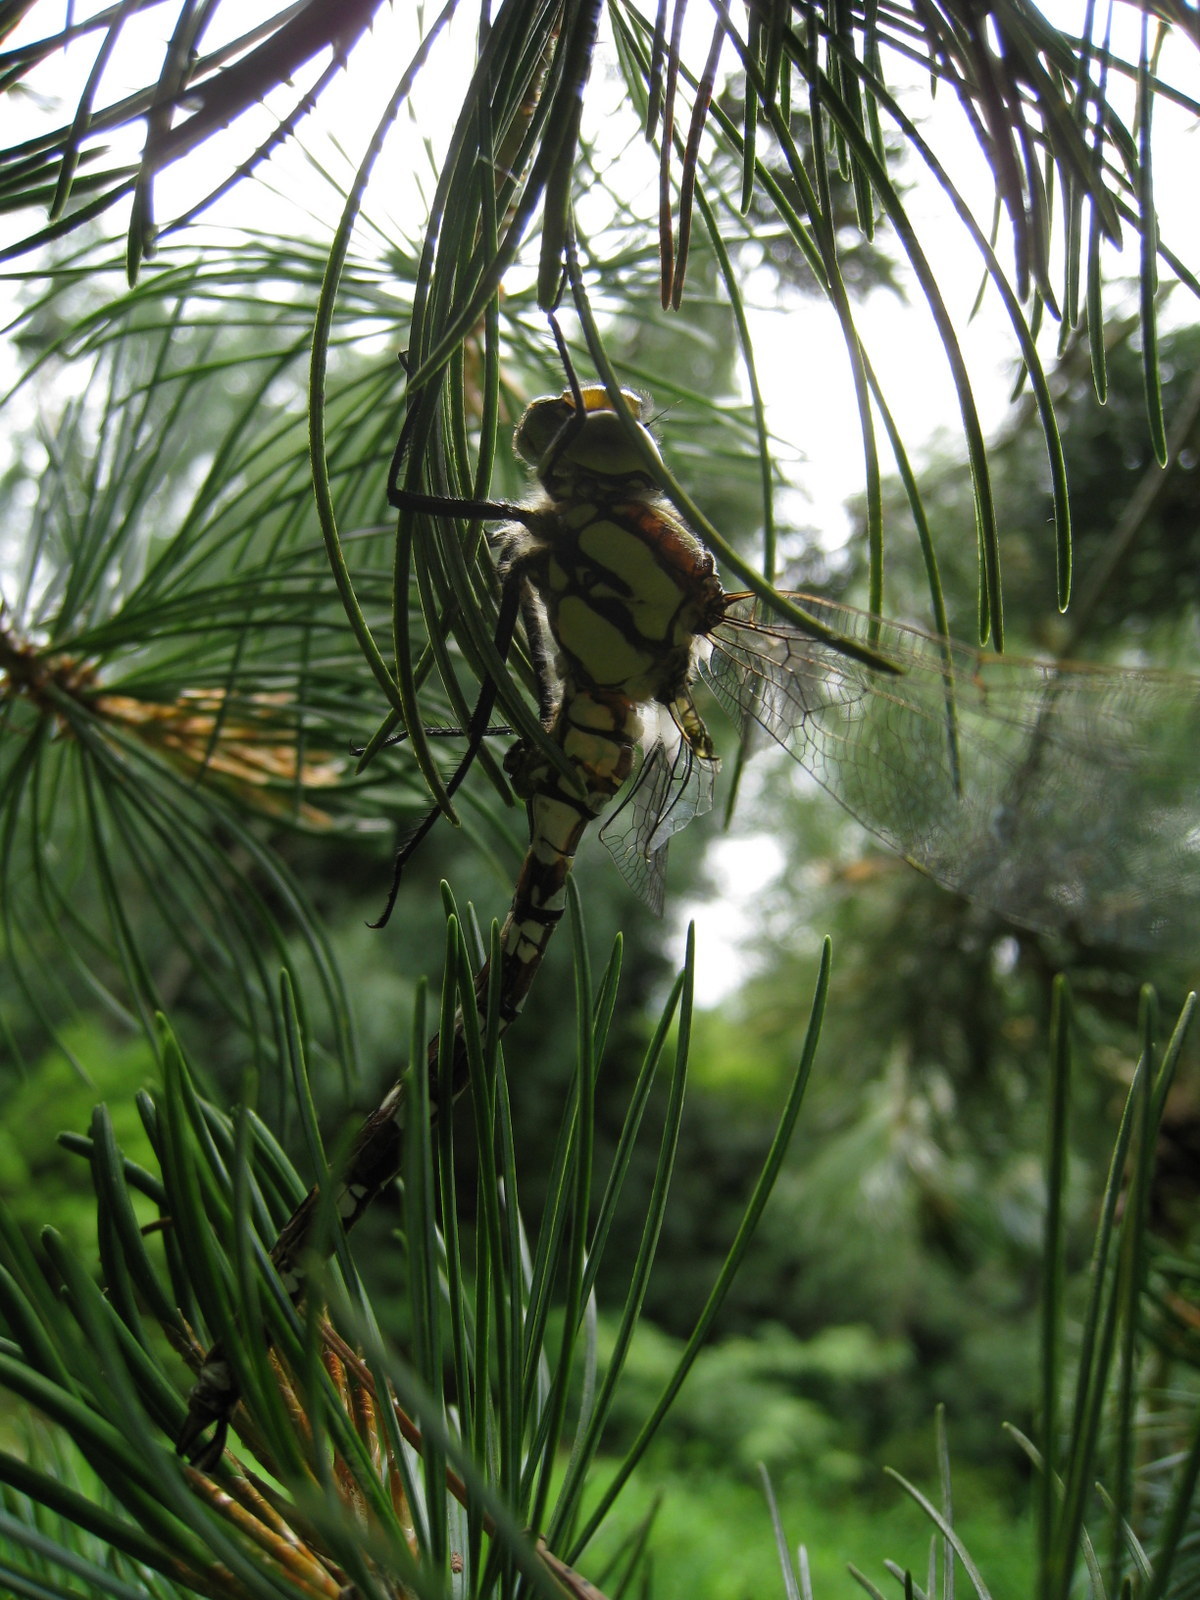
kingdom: Animalia
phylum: Arthropoda
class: Insecta
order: Odonata
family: Aeshnidae
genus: Aeshna
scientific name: Aeshna cyanea
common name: Southern hawker
